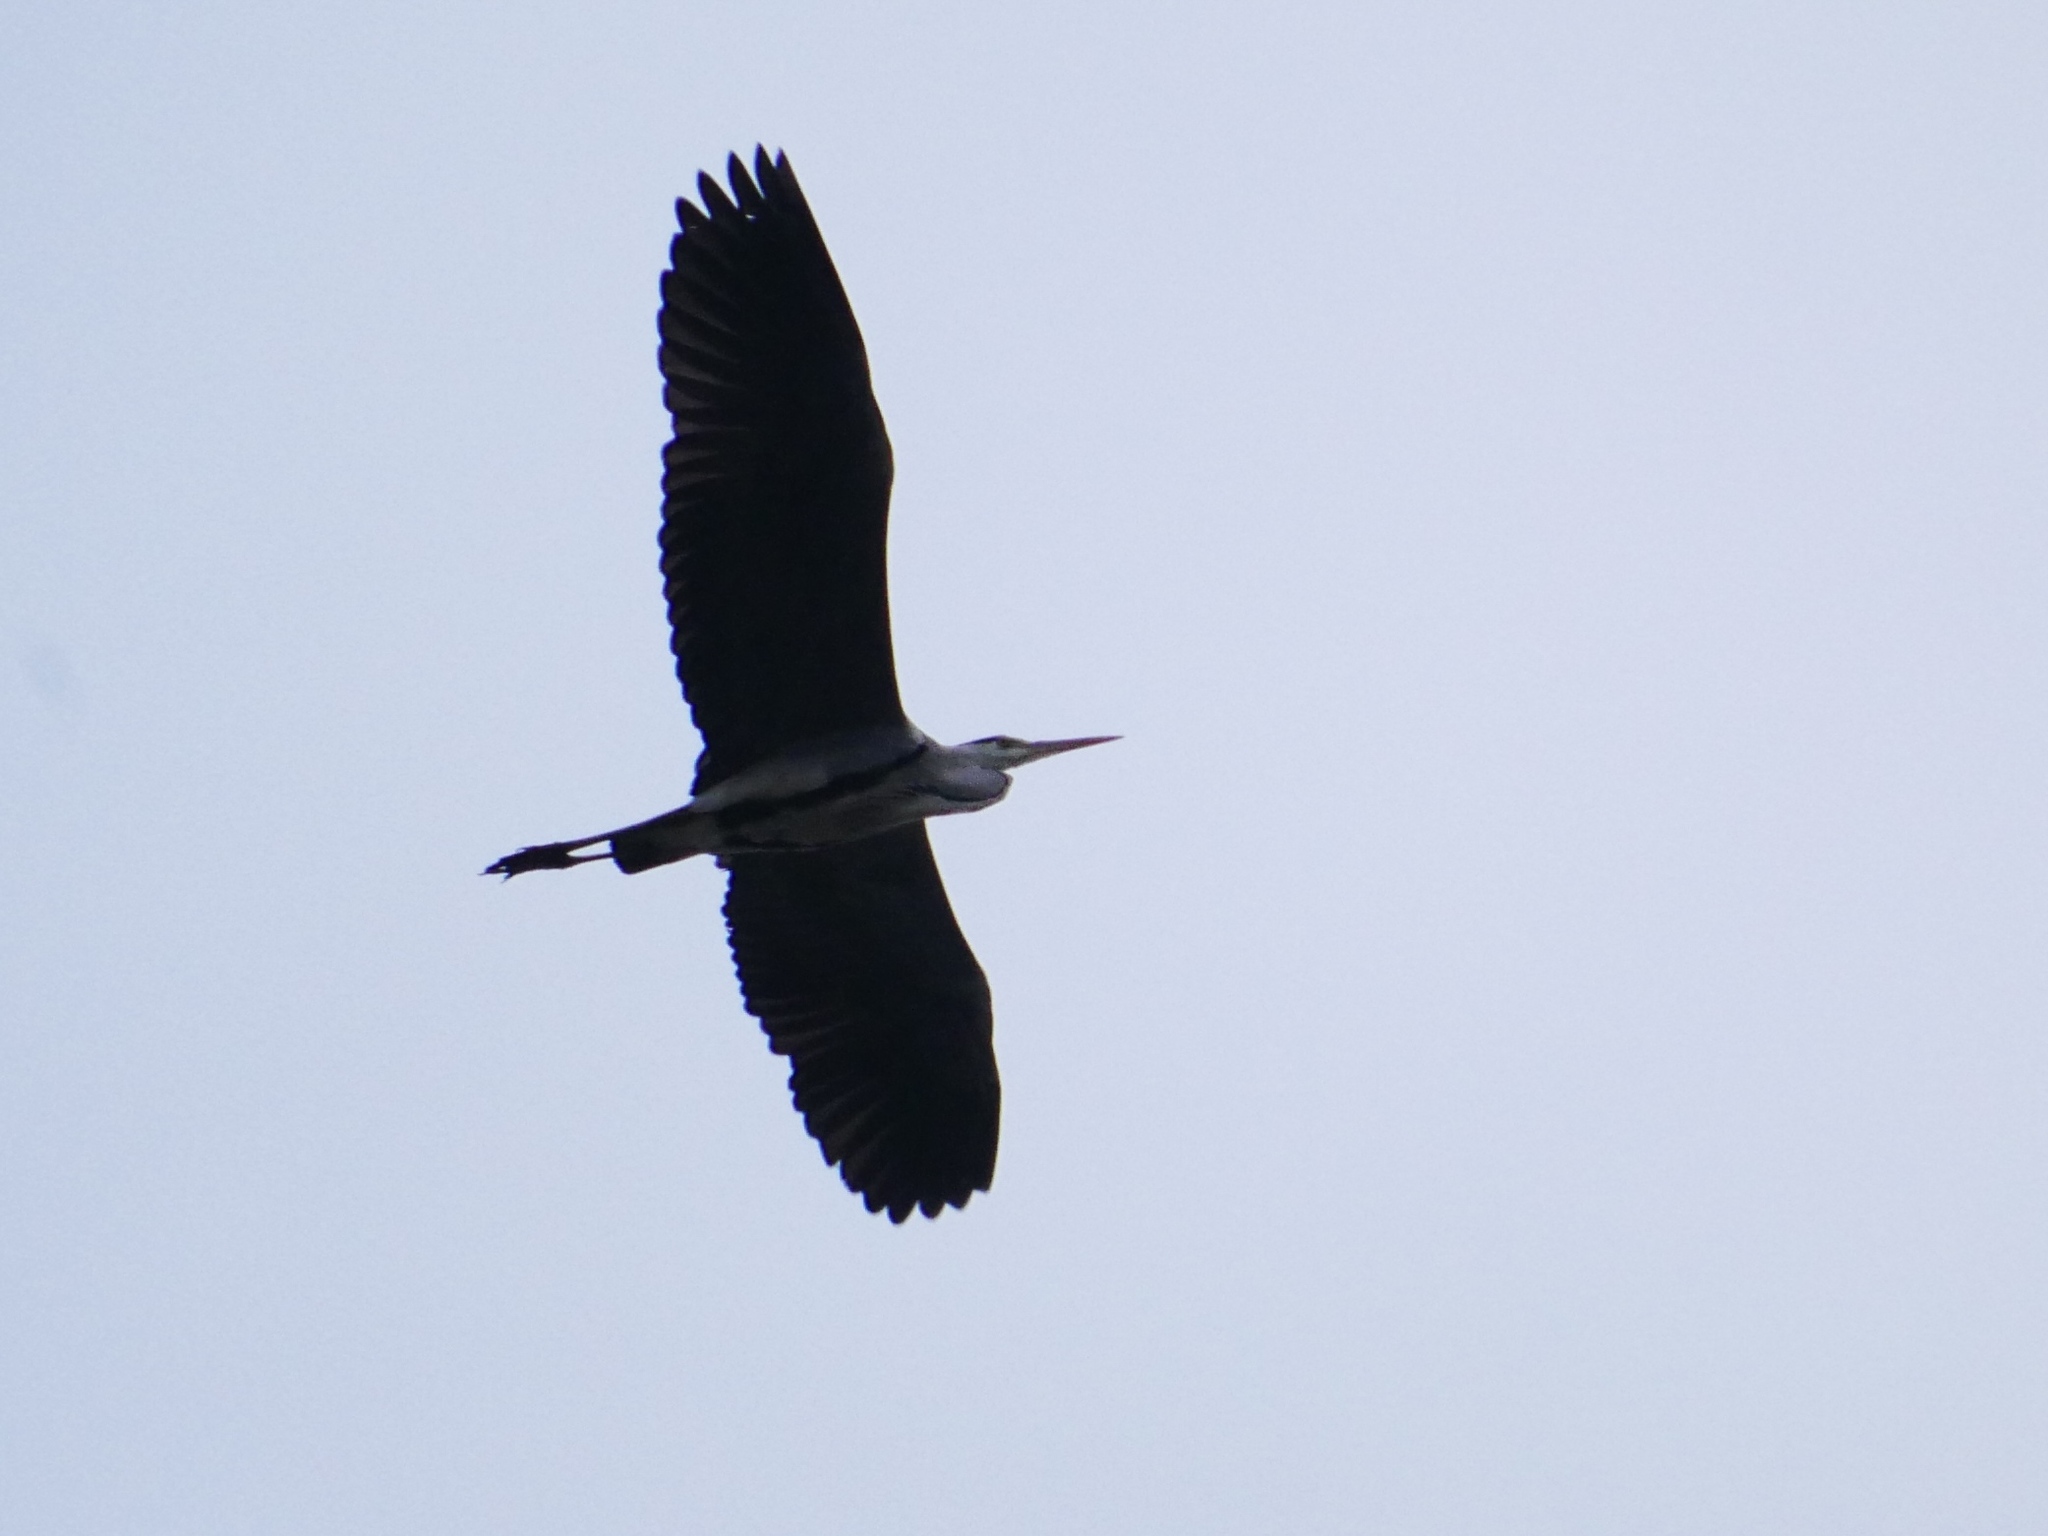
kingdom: Animalia
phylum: Chordata
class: Aves
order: Pelecaniformes
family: Ardeidae
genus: Ardea
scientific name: Ardea cinerea
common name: Grey heron
